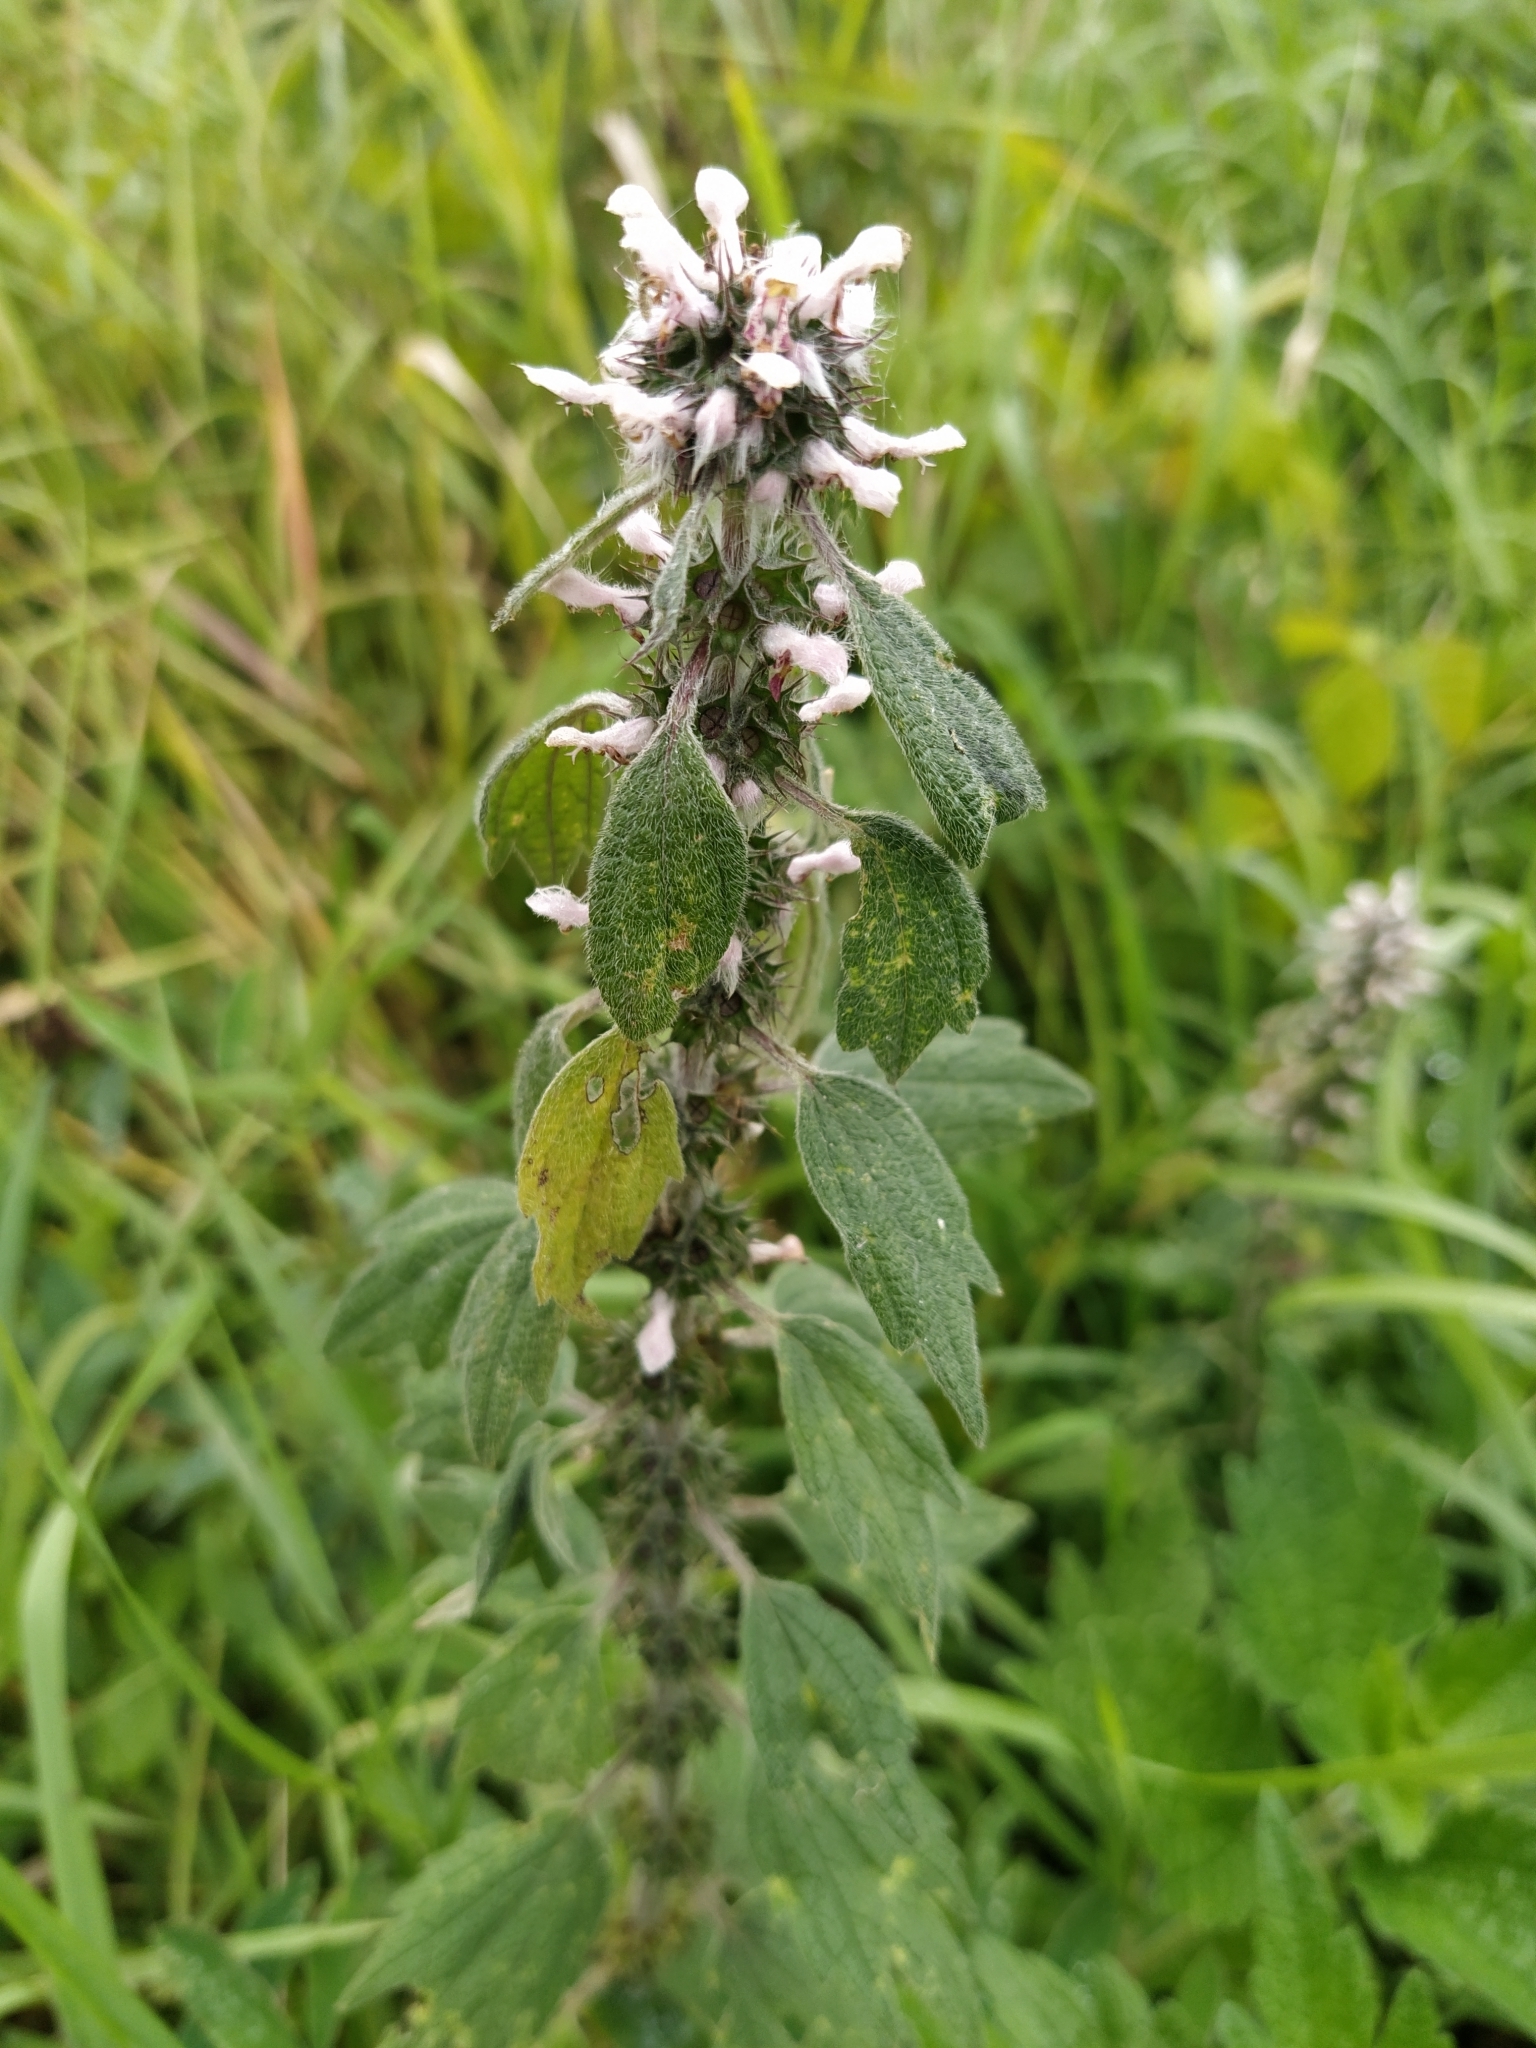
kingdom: Plantae
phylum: Tracheophyta
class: Magnoliopsida
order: Lamiales
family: Lamiaceae
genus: Leonurus
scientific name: Leonurus quinquelobatus
